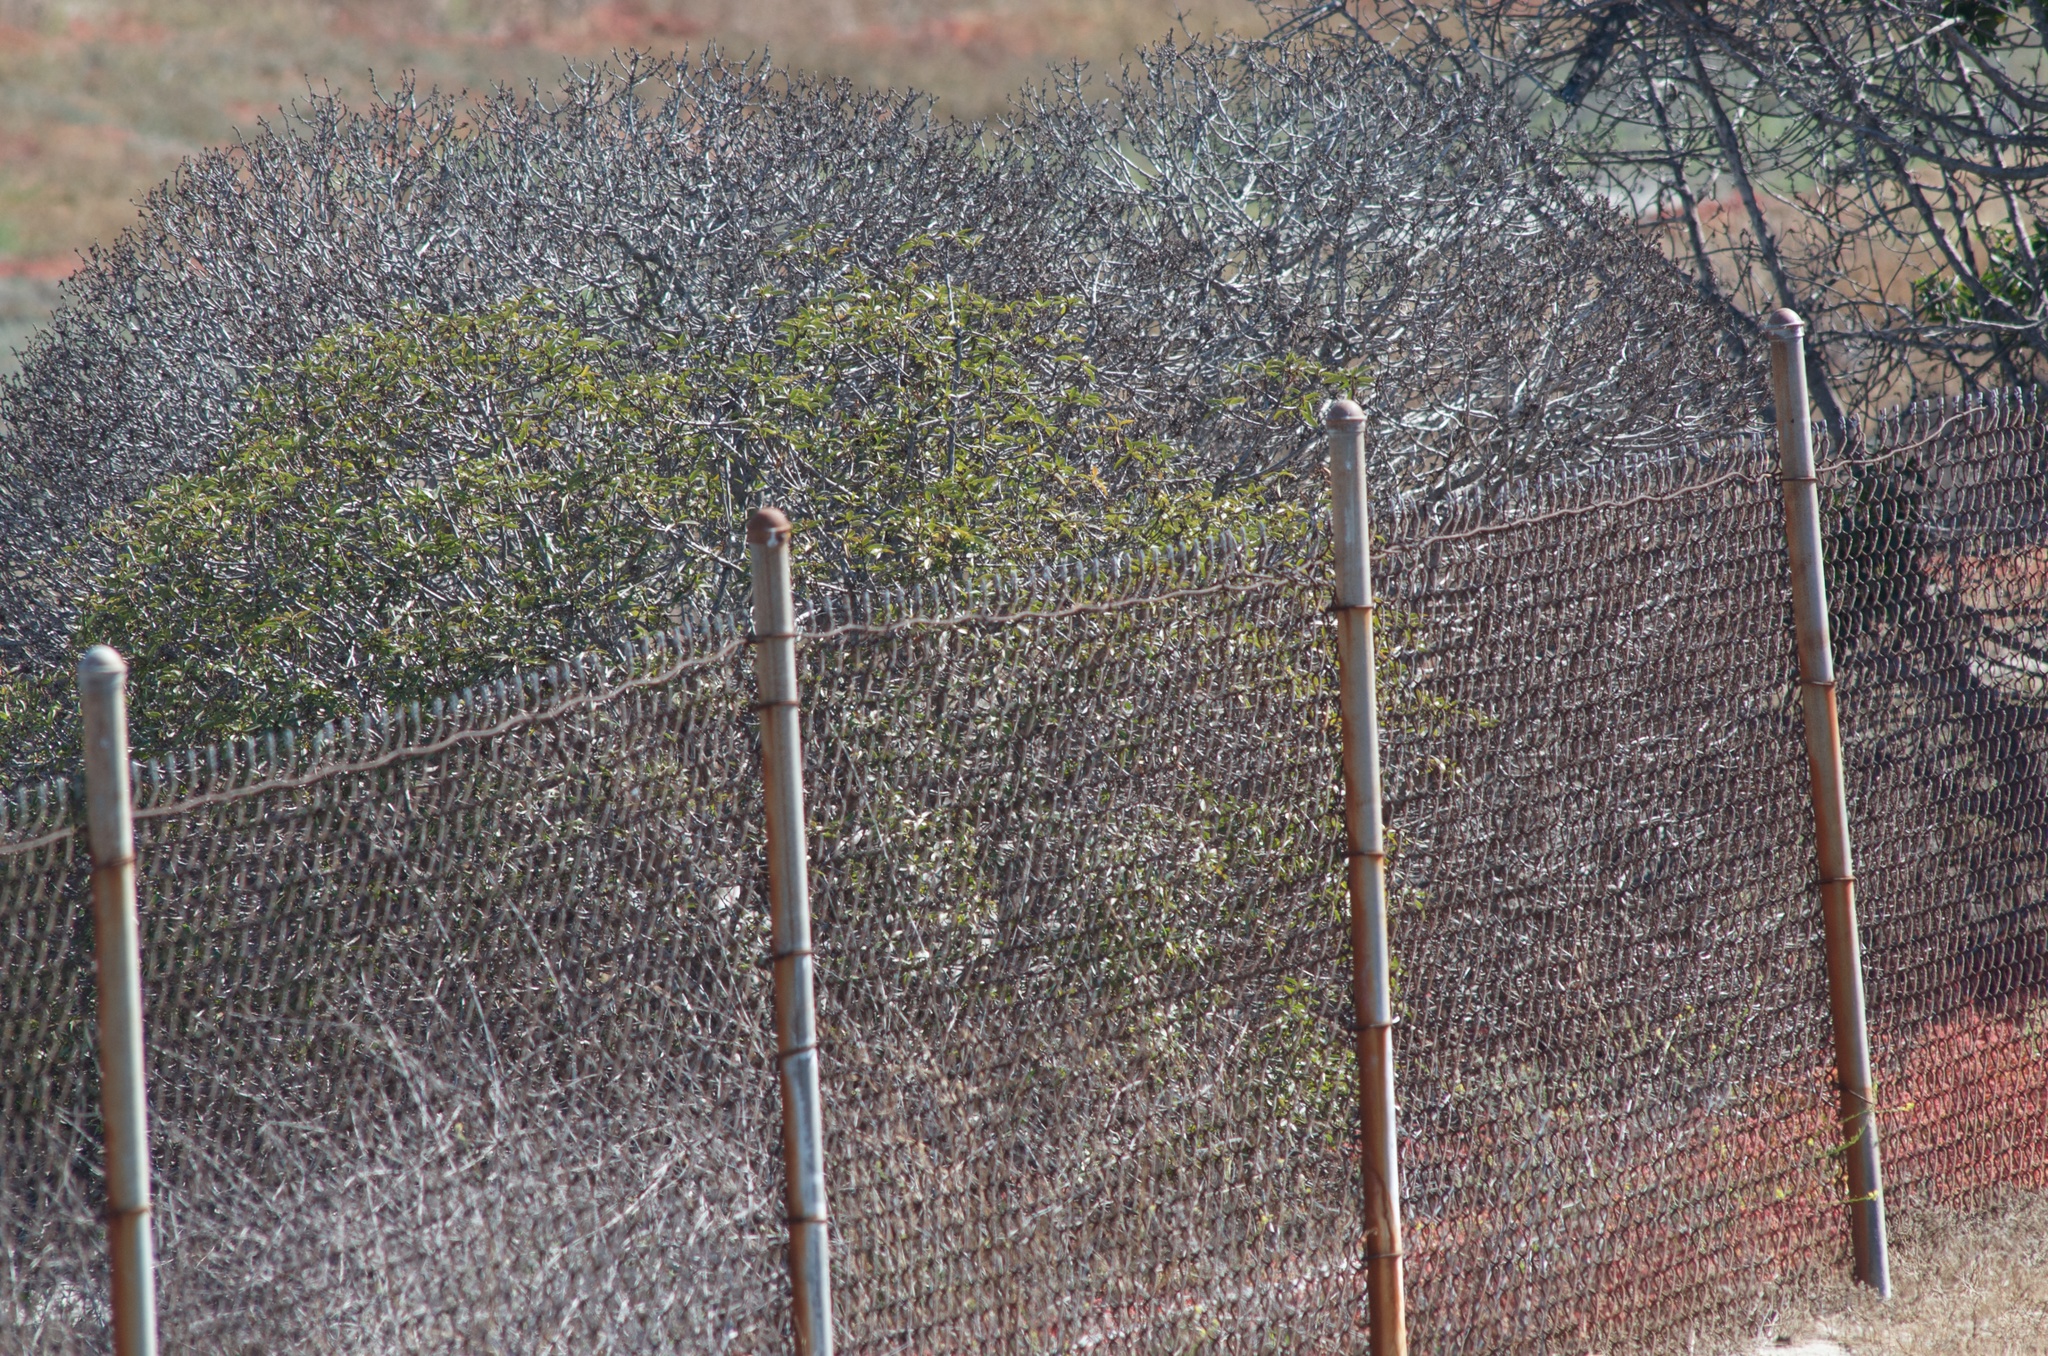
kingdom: Plantae
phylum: Tracheophyta
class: Magnoliopsida
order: Lamiales
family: Scrophulariaceae
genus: Myoporum
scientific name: Myoporum laetum
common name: Ngaio tree
